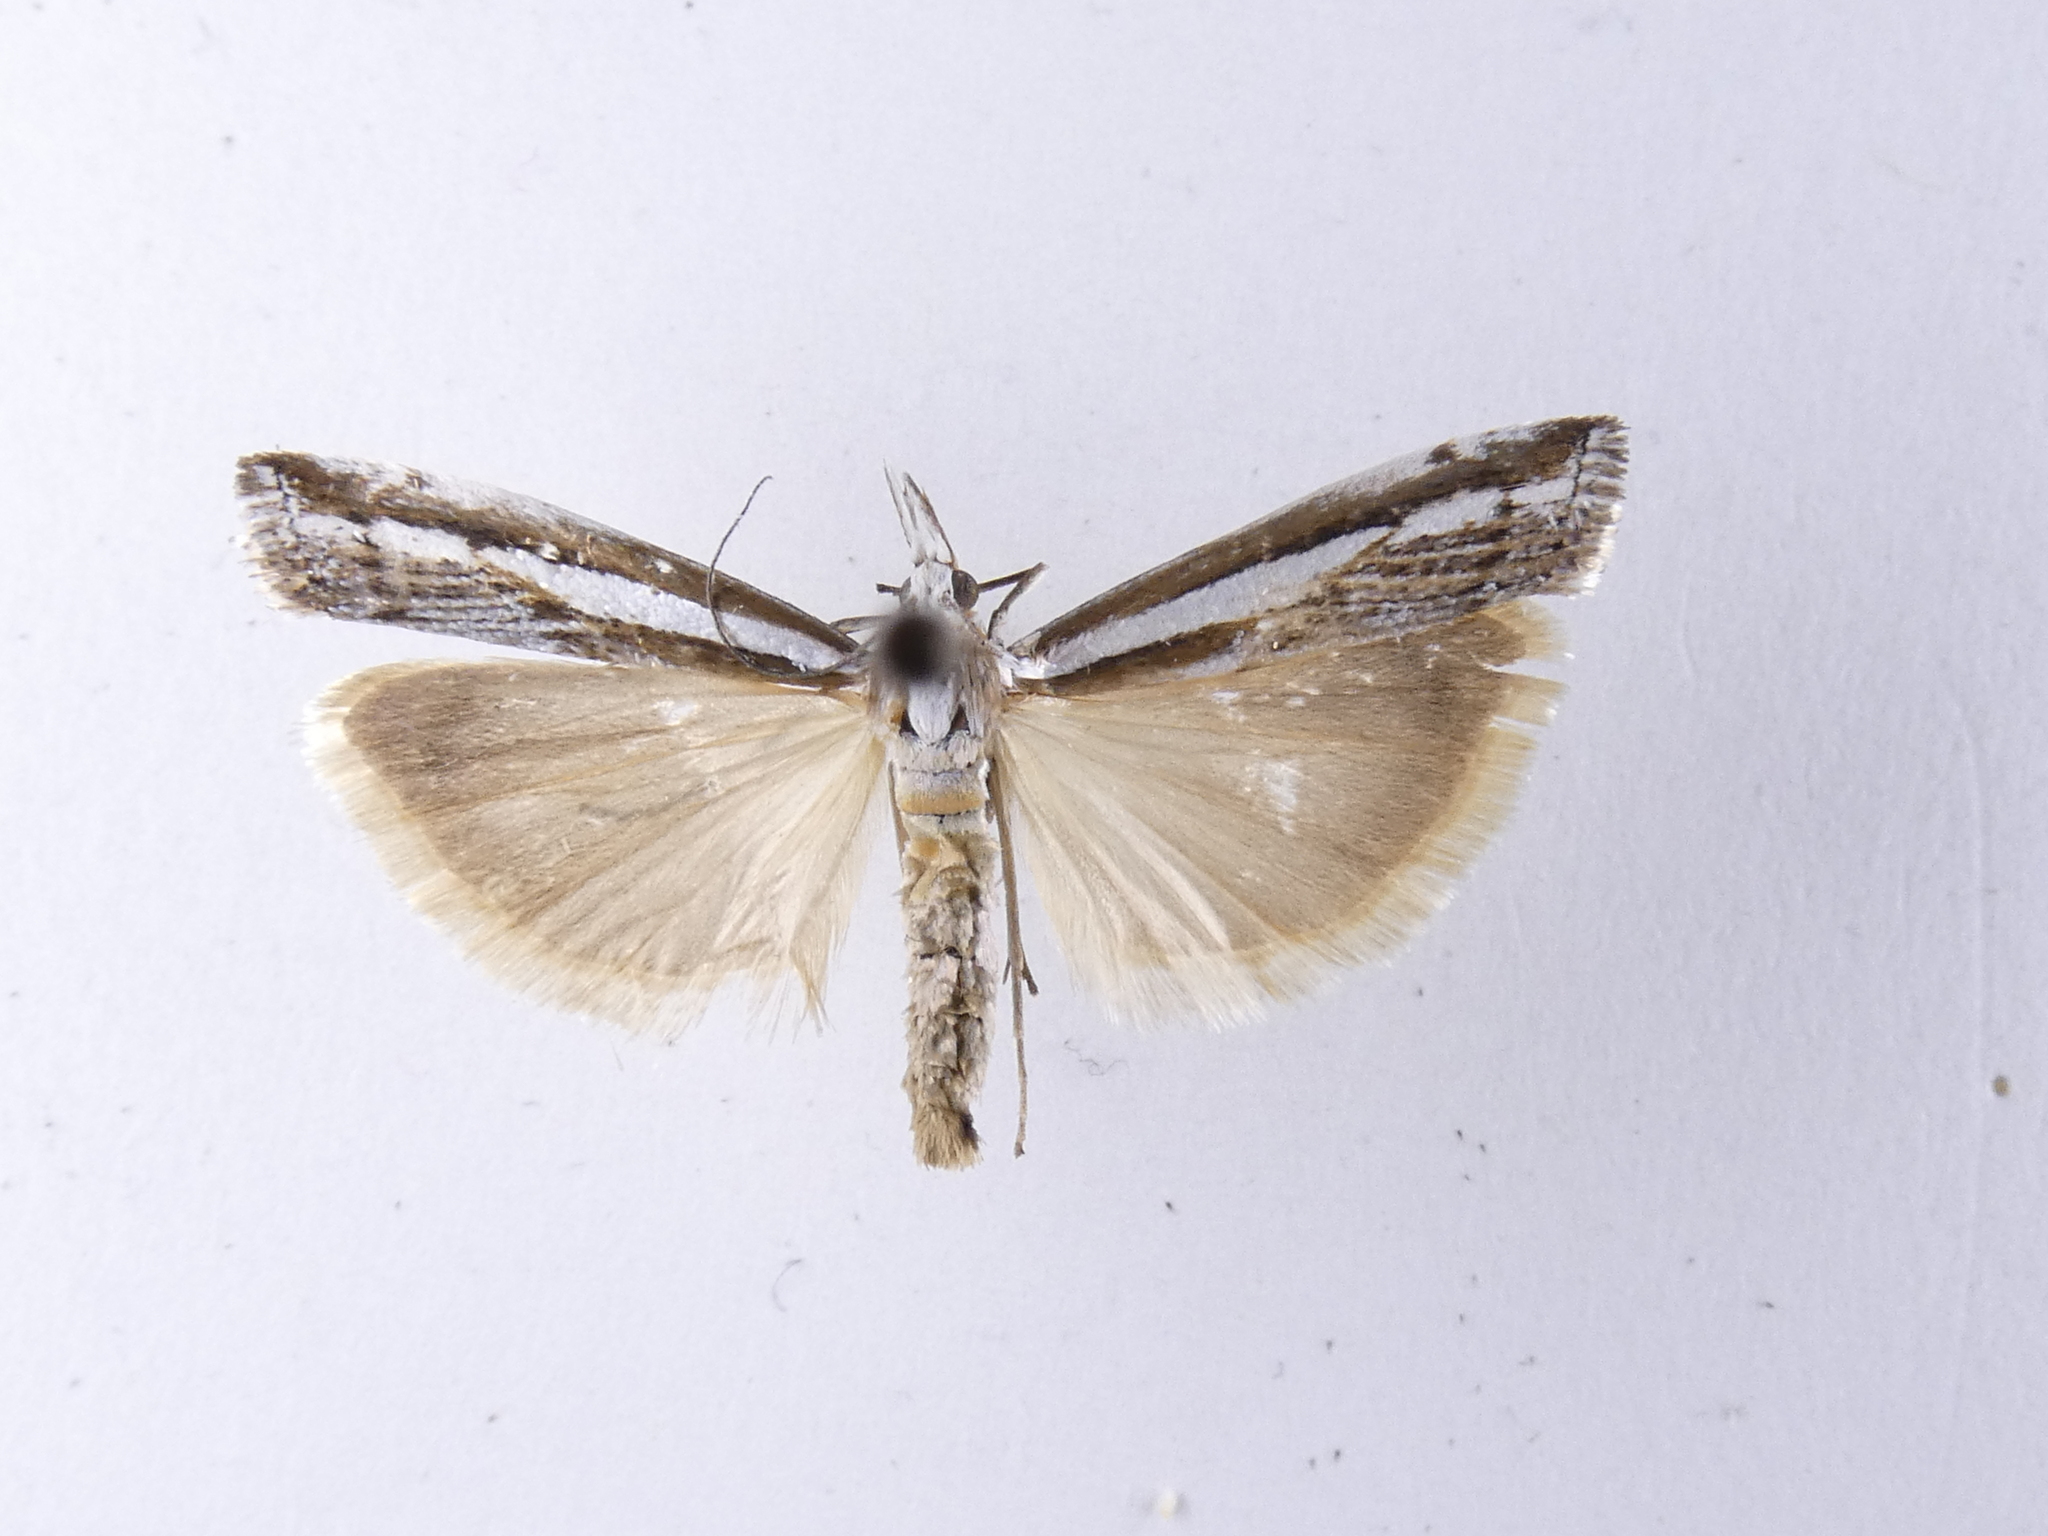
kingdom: Animalia
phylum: Arthropoda
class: Insecta
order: Lepidoptera
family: Crambidae
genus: Orocrambus
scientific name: Orocrambus vittellus
